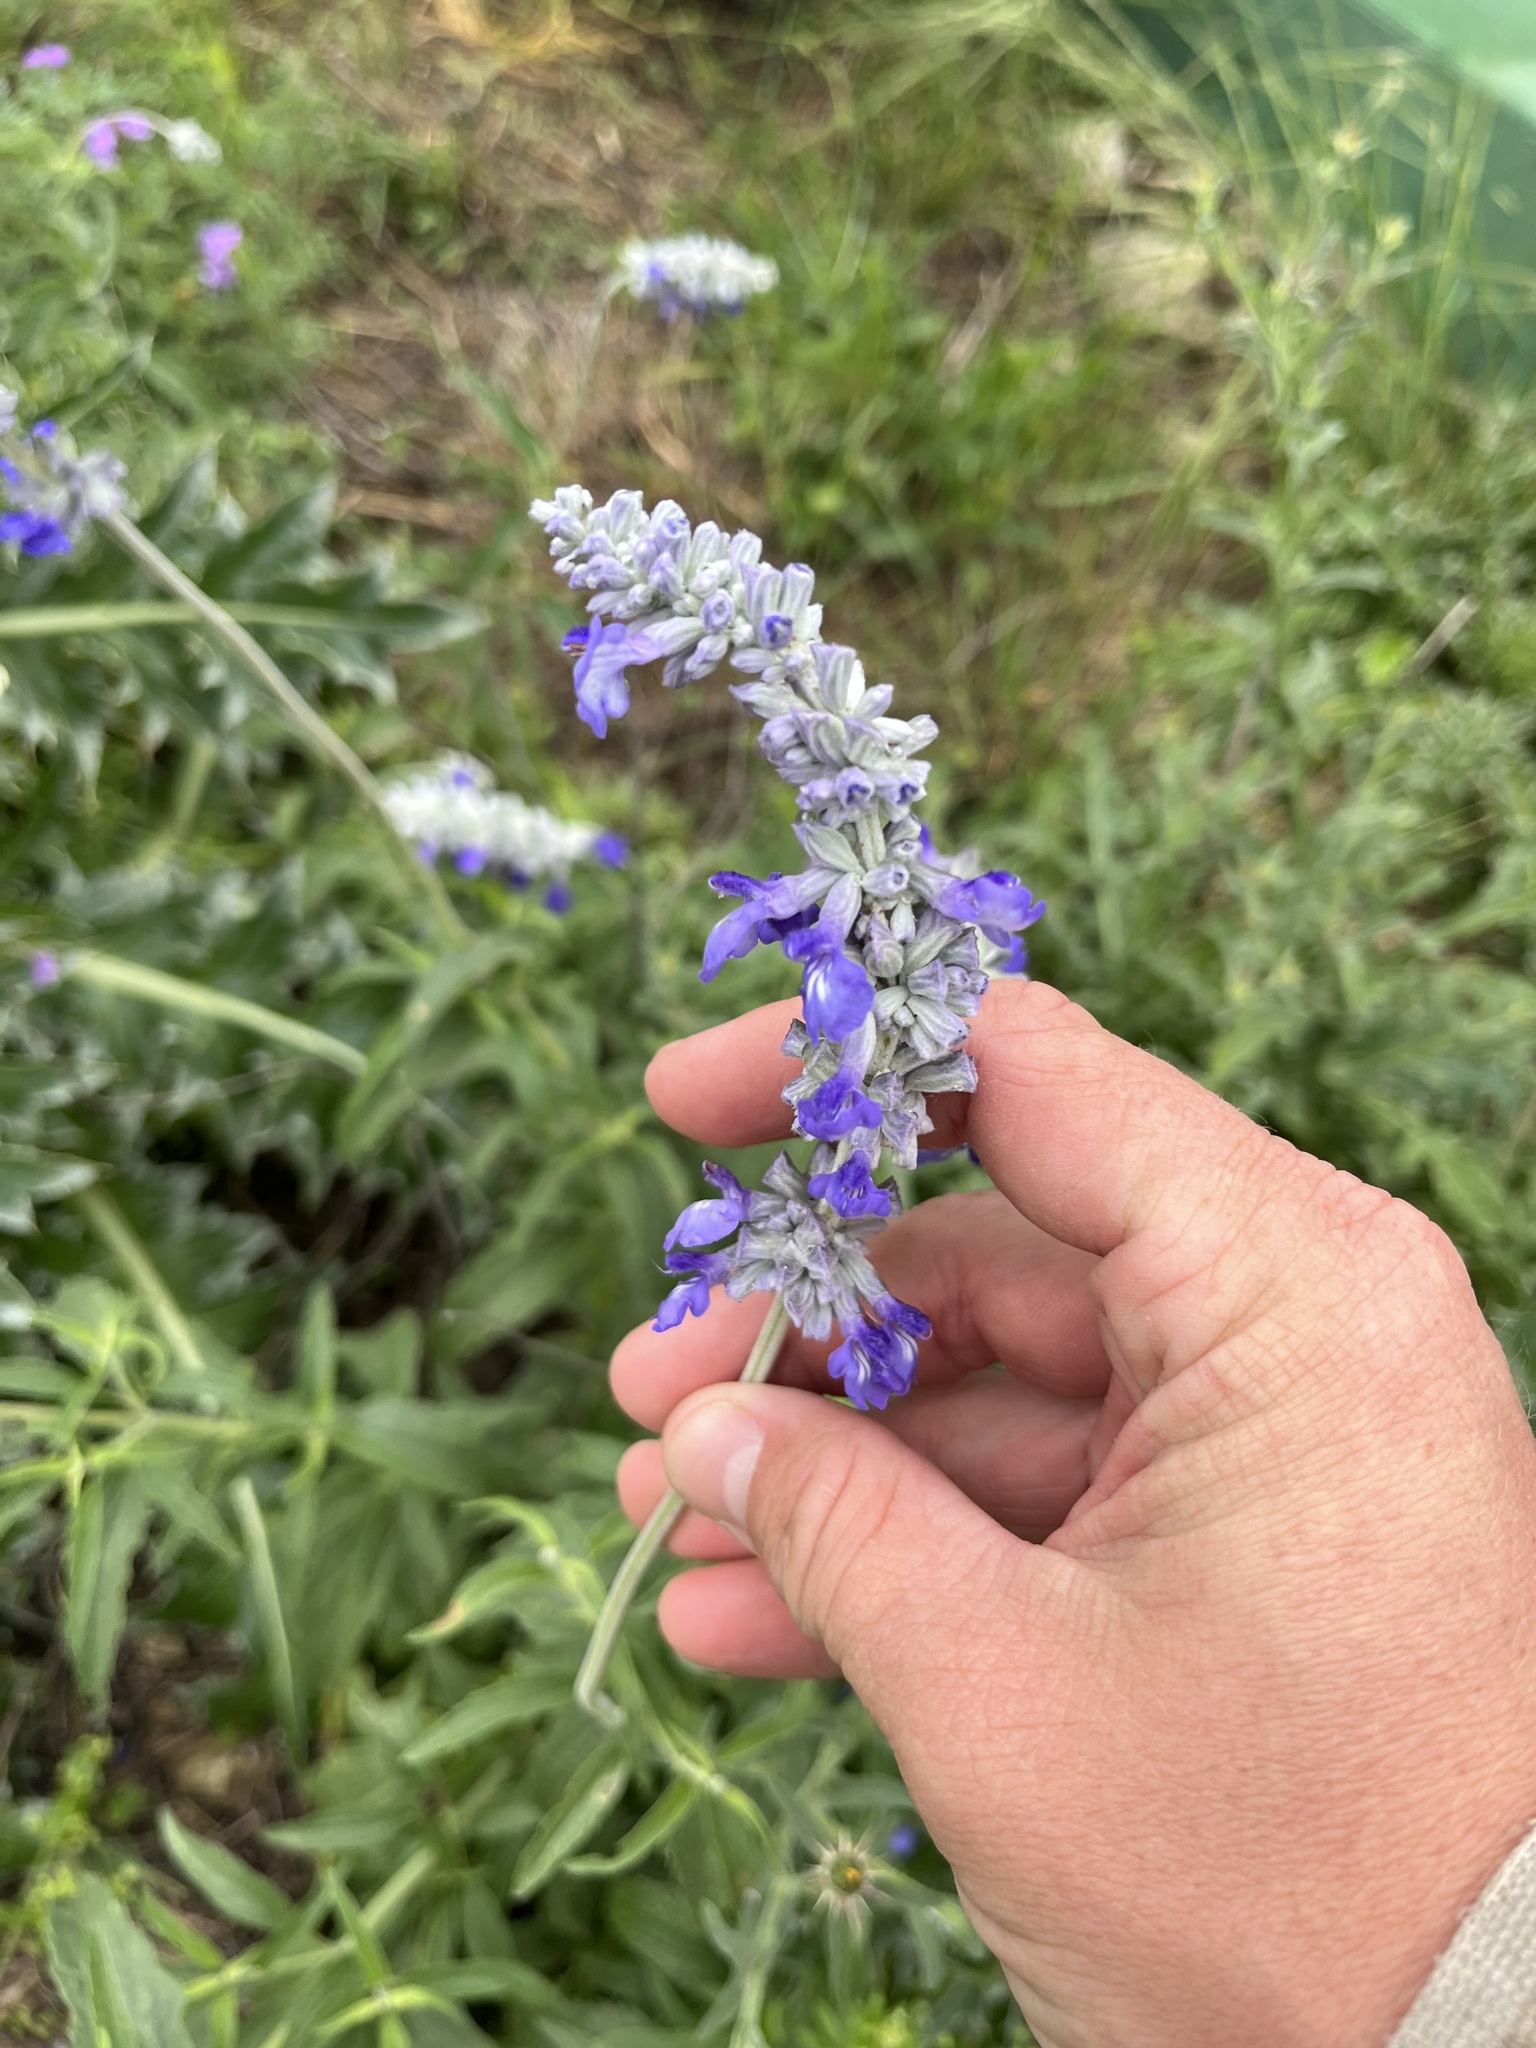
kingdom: Plantae
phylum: Tracheophyta
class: Magnoliopsida
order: Lamiales
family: Lamiaceae
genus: Salvia
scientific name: Salvia farinacea
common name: Mealy sage
